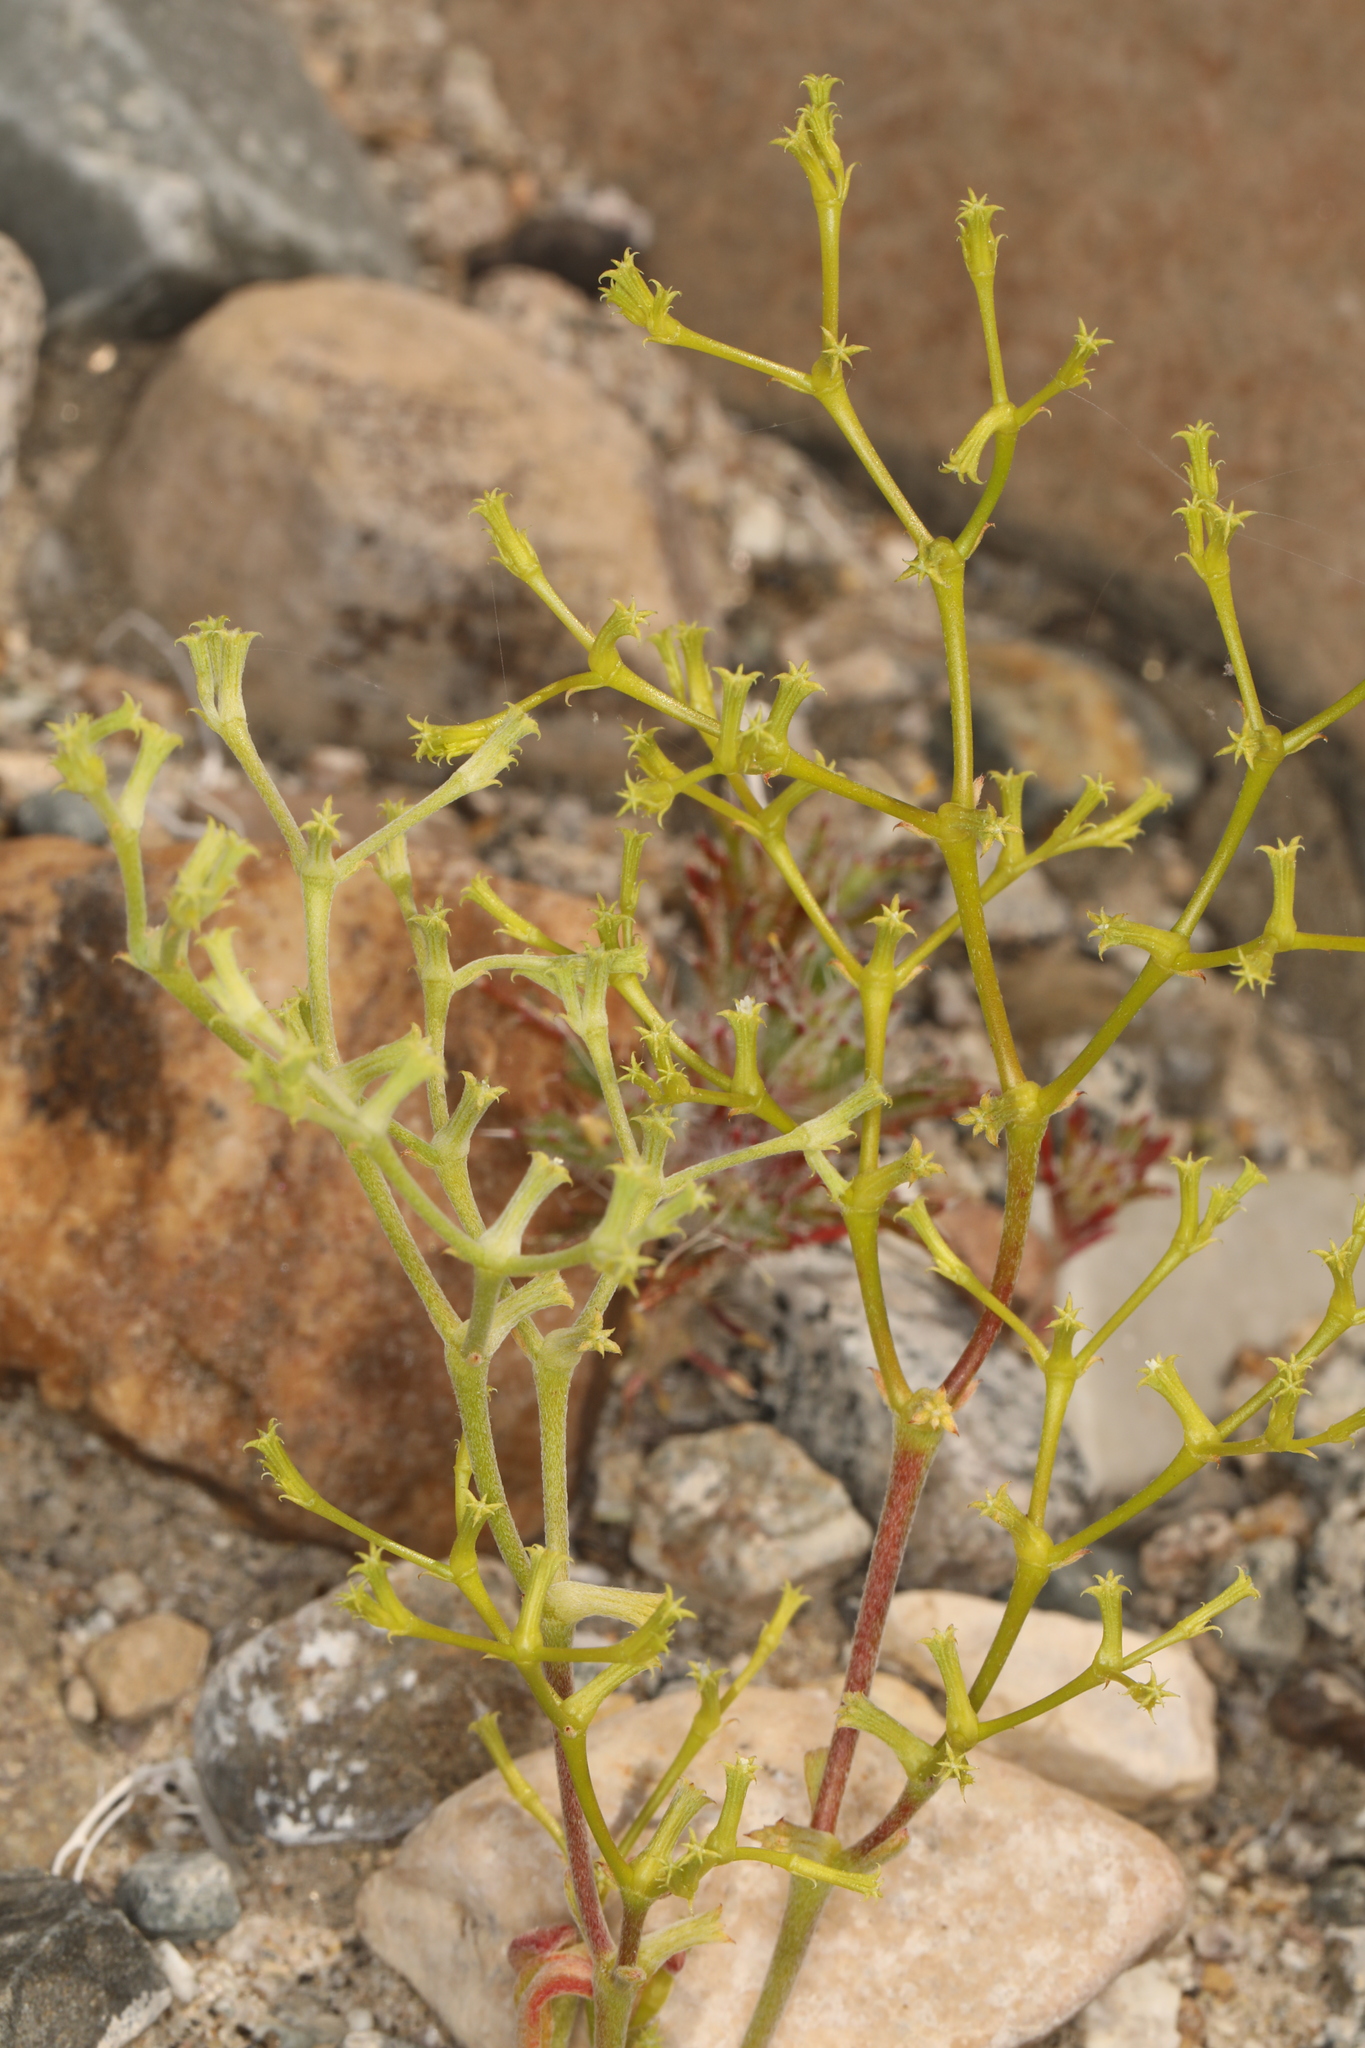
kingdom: Plantae
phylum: Tracheophyta
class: Magnoliopsida
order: Caryophyllales
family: Polygonaceae
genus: Chorizanthe
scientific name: Chorizanthe brevicornu
